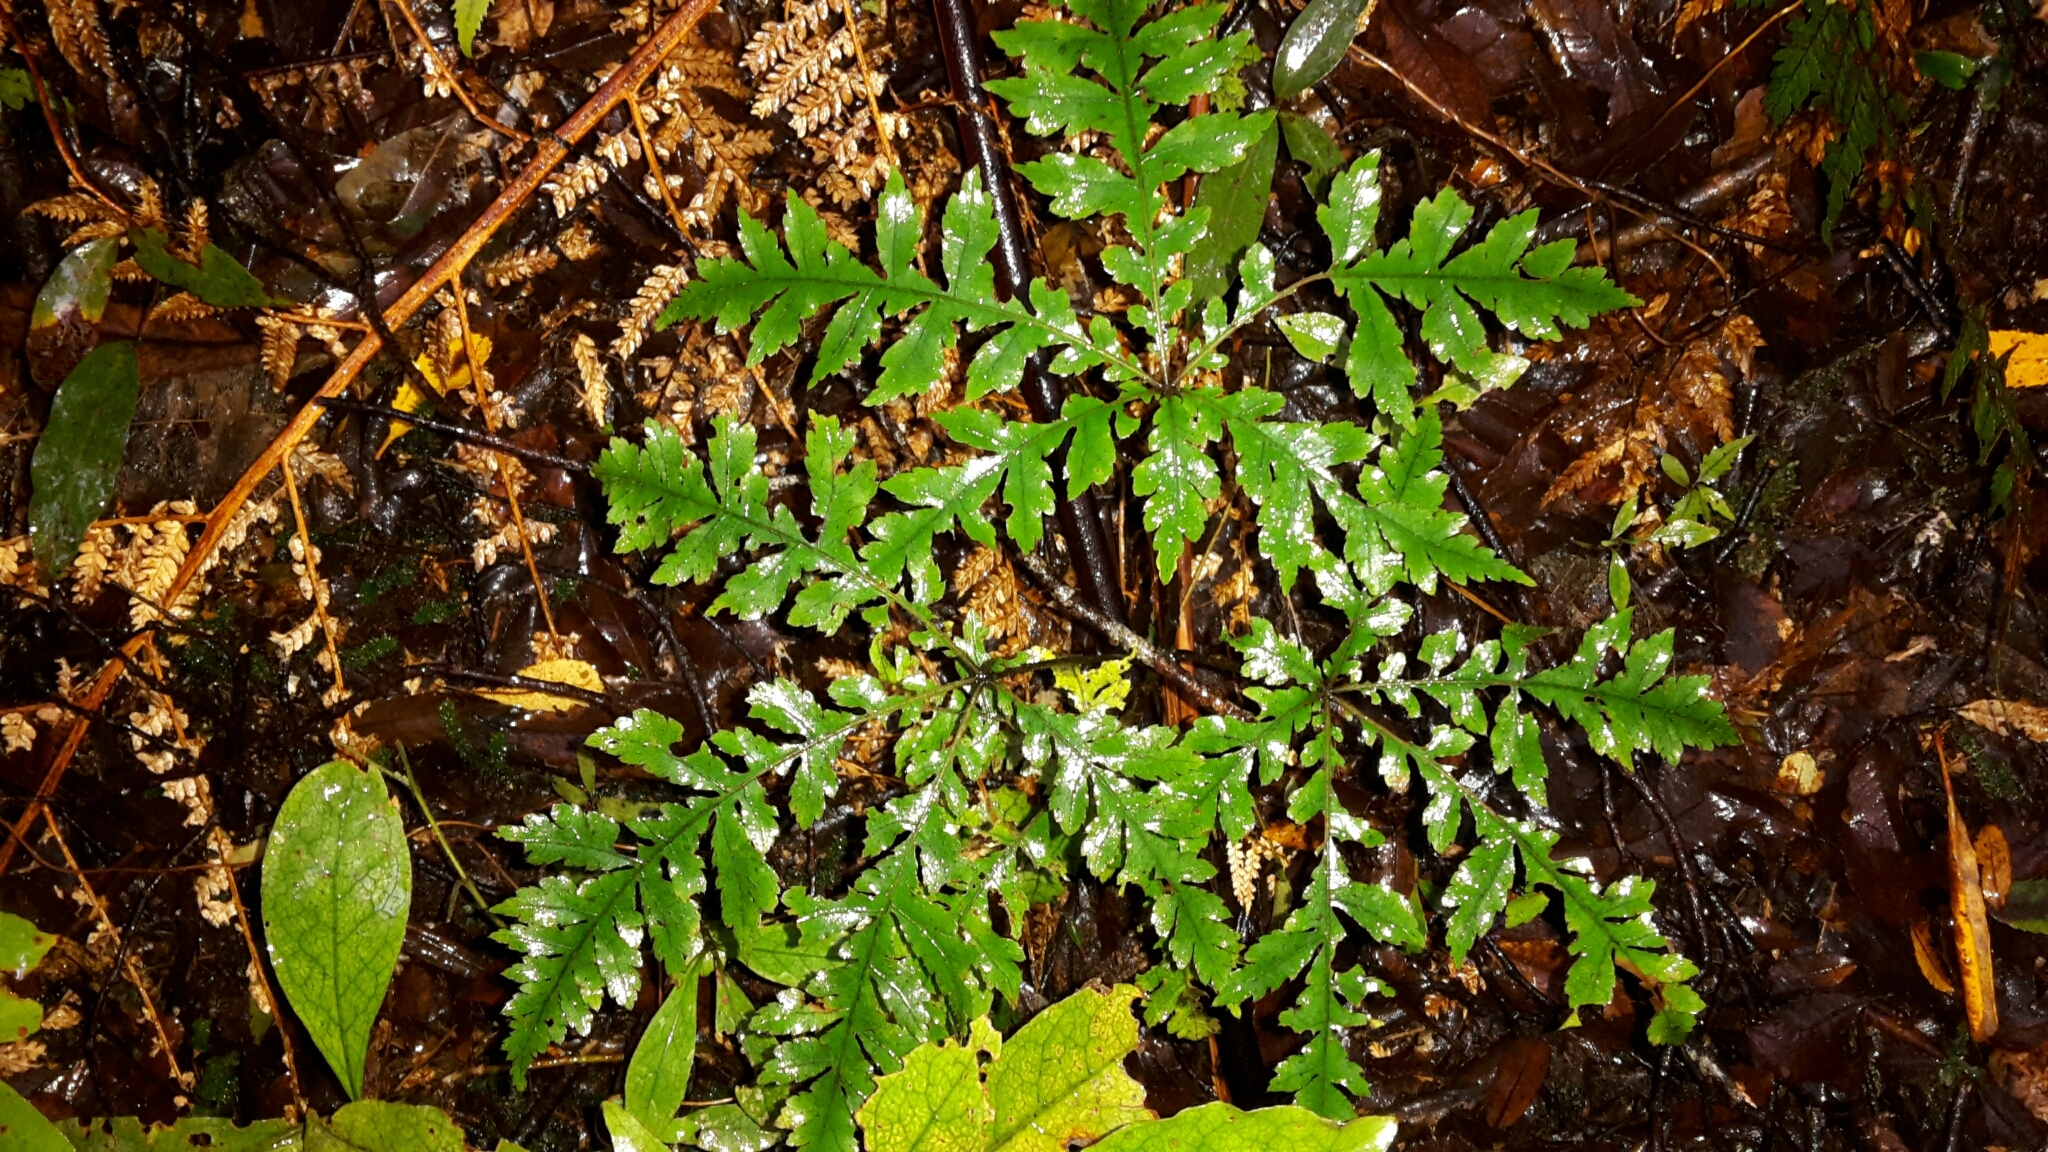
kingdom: Plantae
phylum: Tracheophyta
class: Magnoliopsida
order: Apiales
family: Araliaceae
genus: Schefflera
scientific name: Schefflera digitata
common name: Pate
